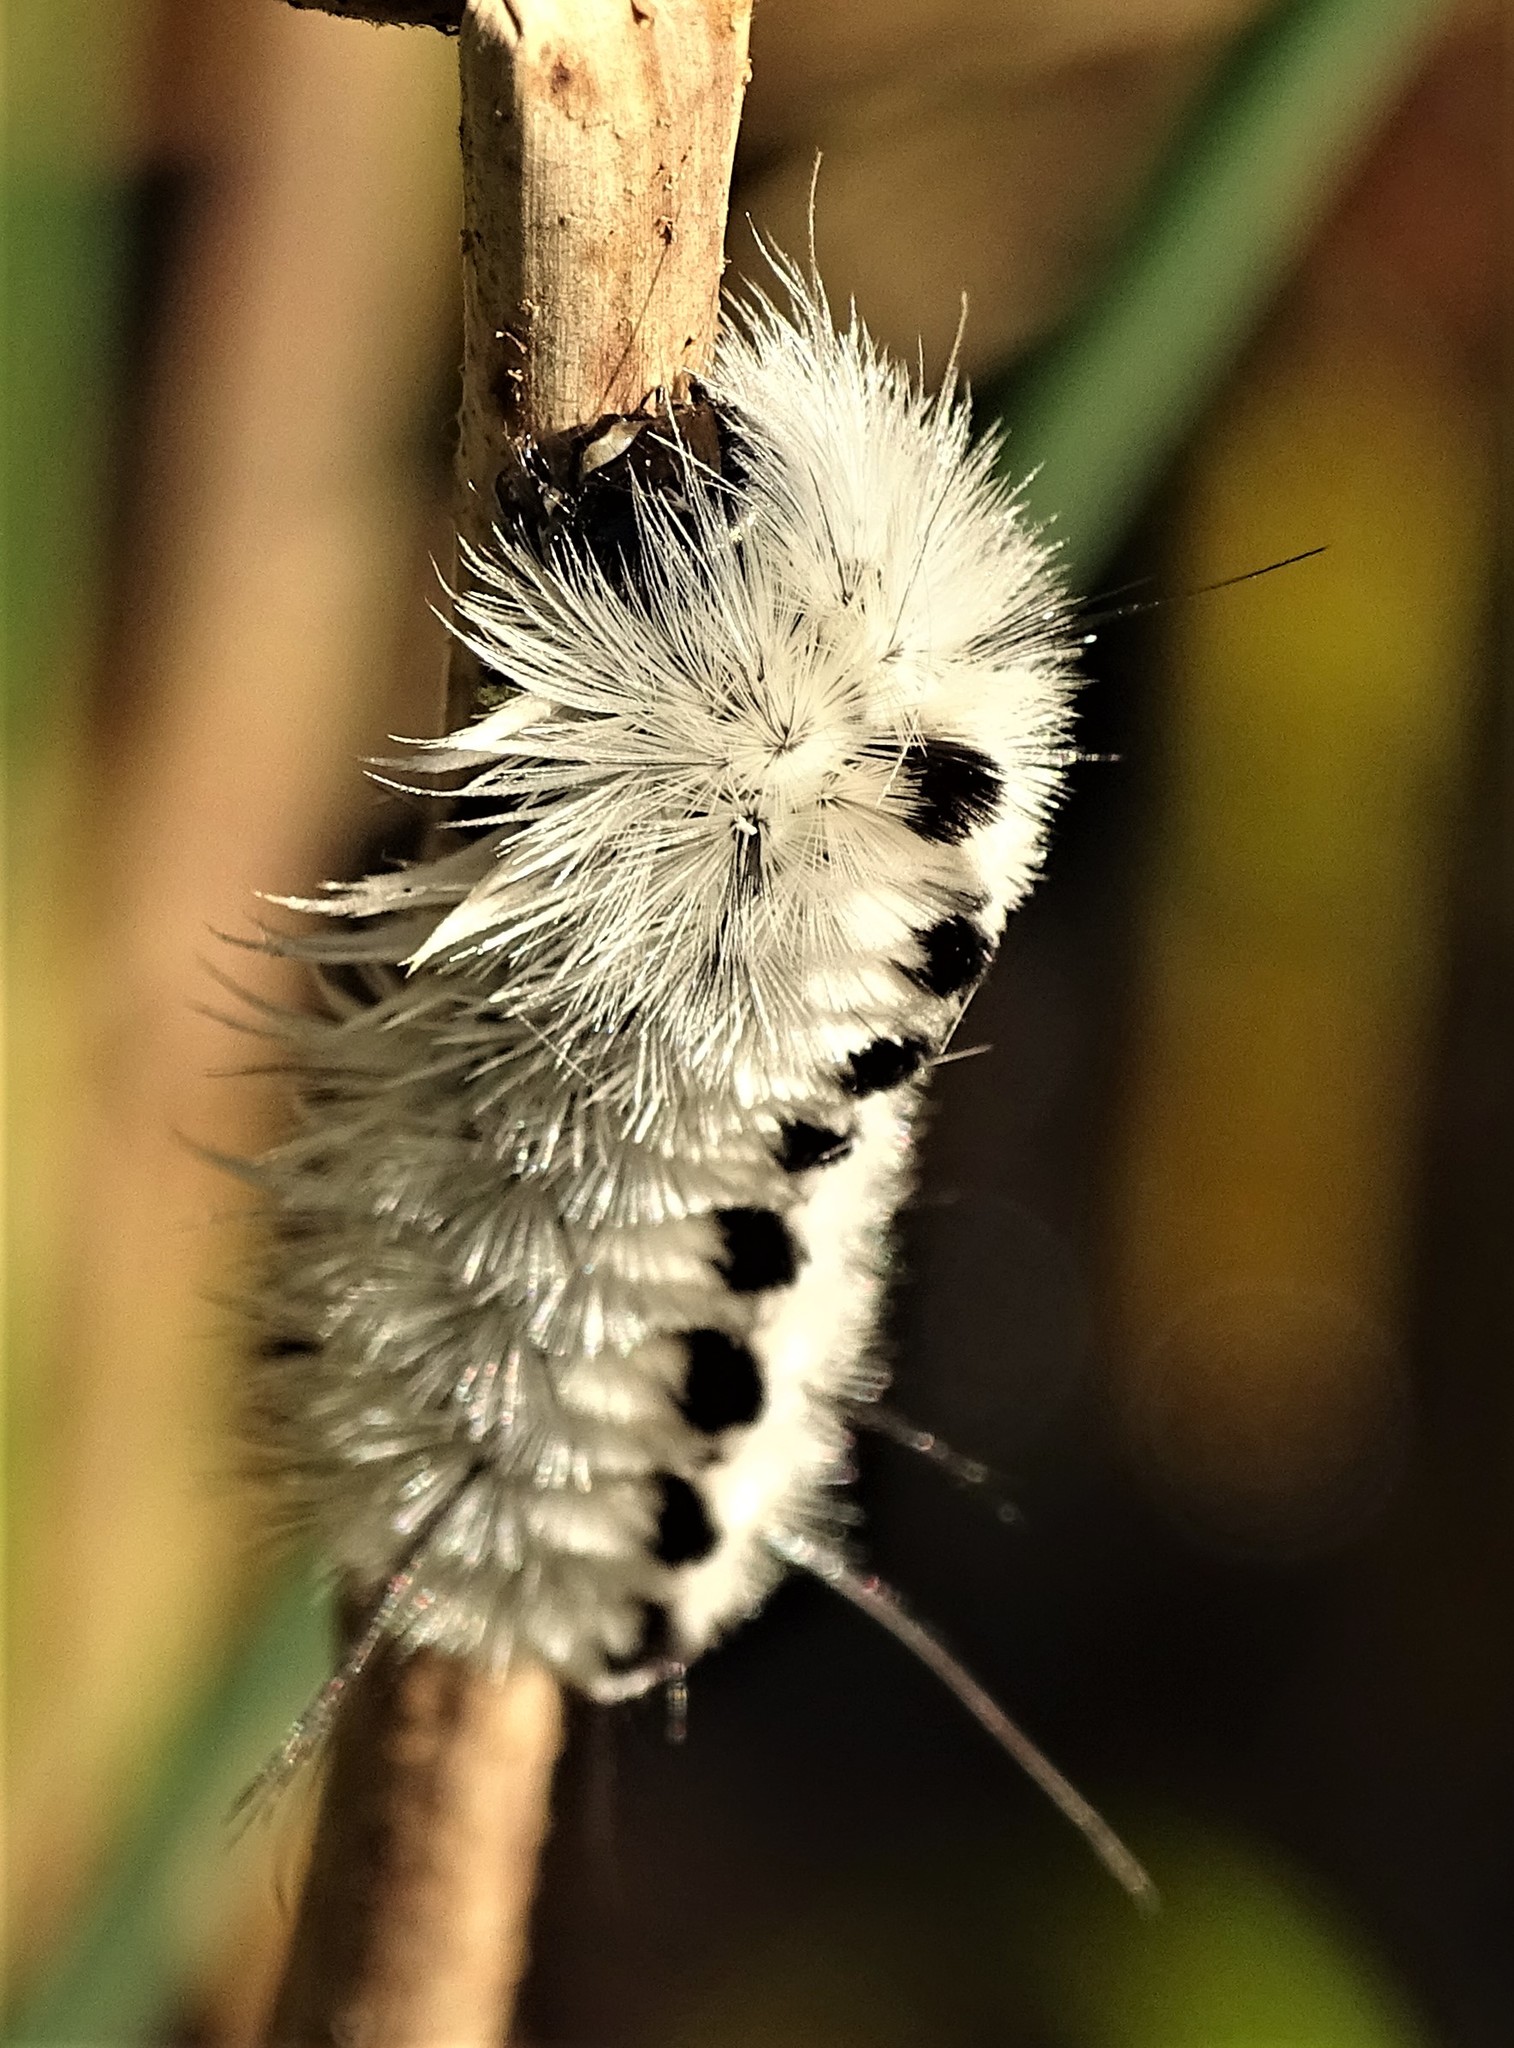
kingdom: Animalia
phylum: Arthropoda
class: Insecta
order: Lepidoptera
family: Erebidae
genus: Lophocampa
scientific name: Lophocampa caryae
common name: Hickory tussock moth
